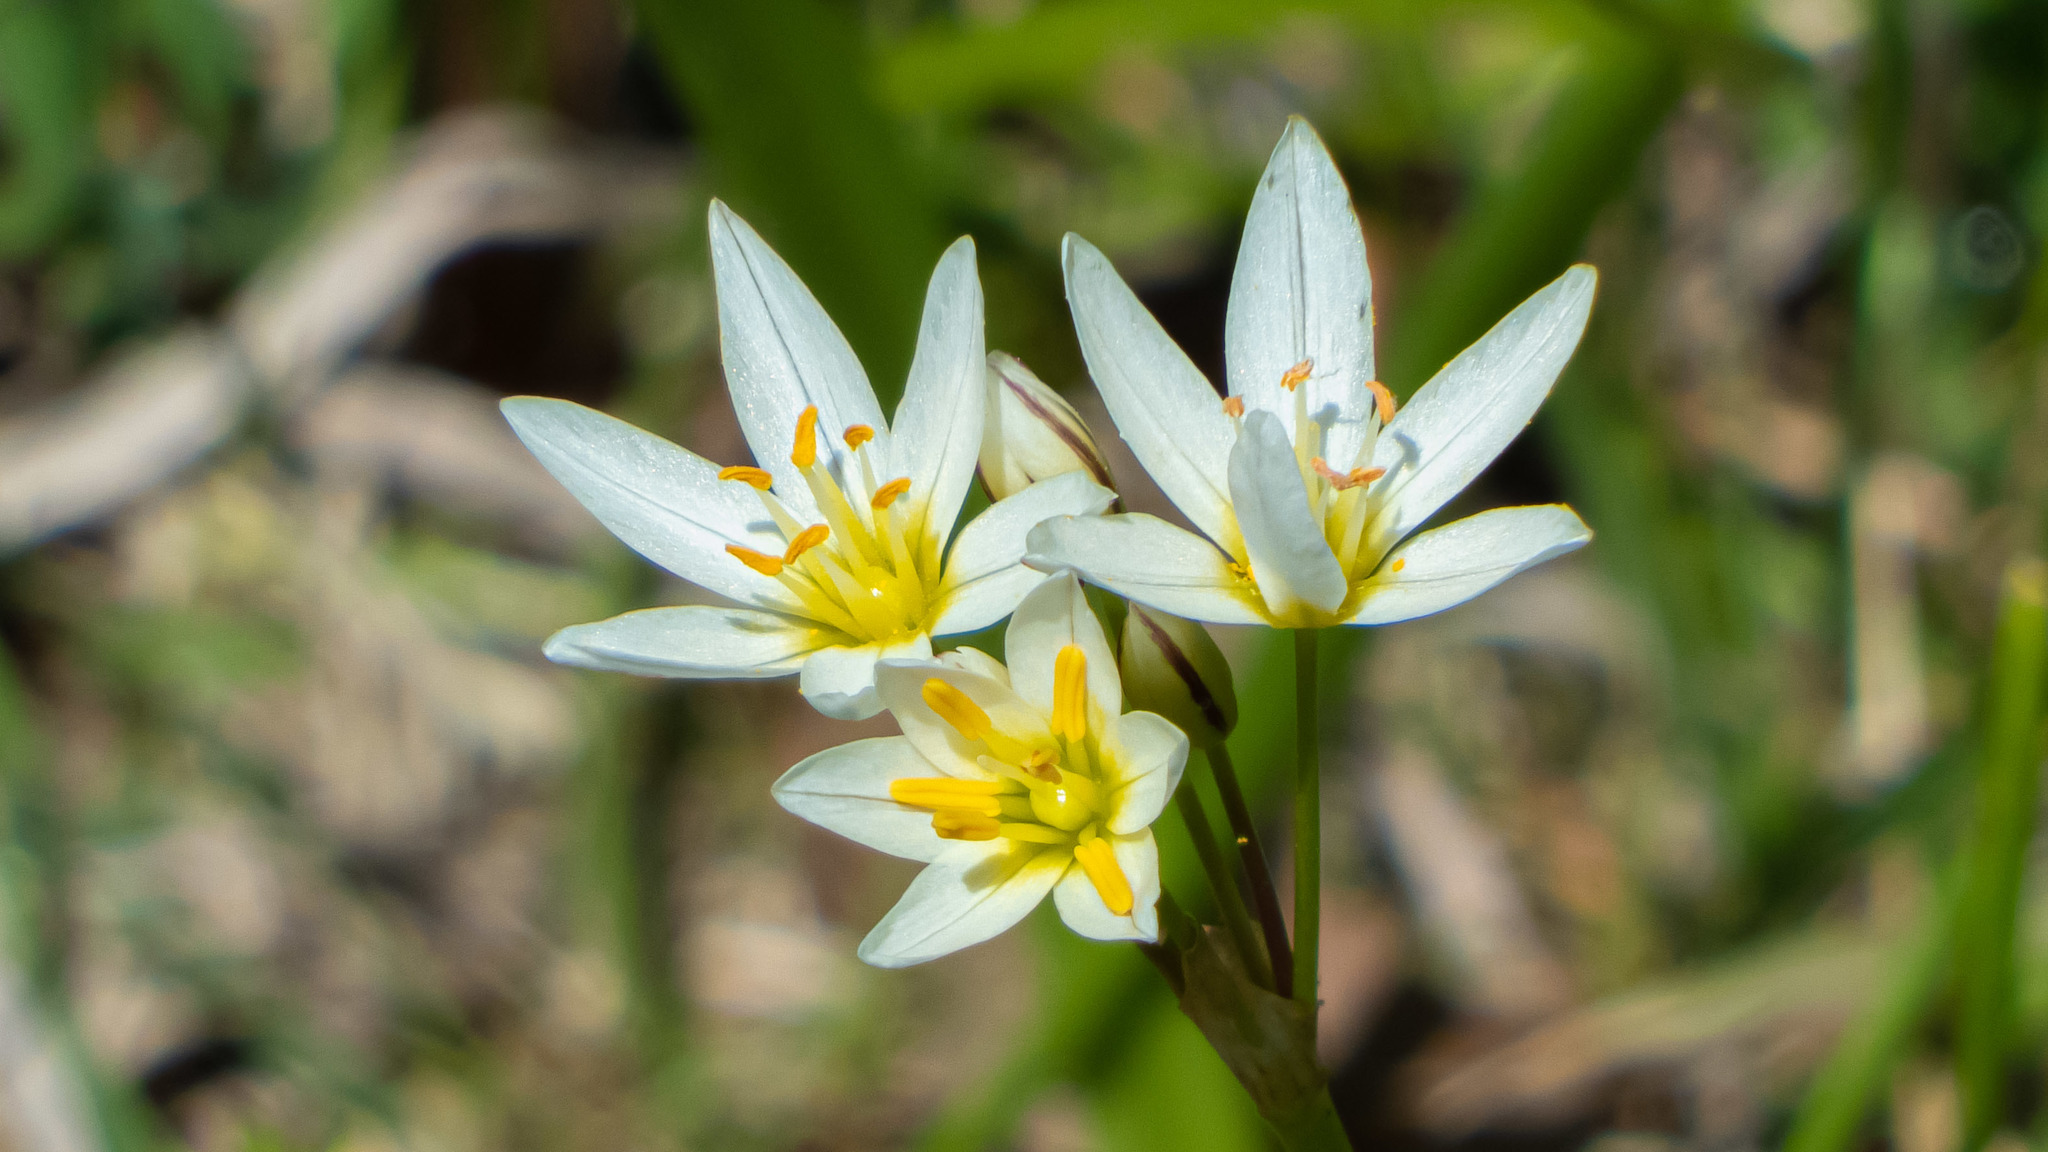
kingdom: Plantae
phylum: Tracheophyta
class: Liliopsida
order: Asparagales
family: Amaryllidaceae
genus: Nothoscordum
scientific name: Nothoscordum bivalve
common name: Crow-poison
